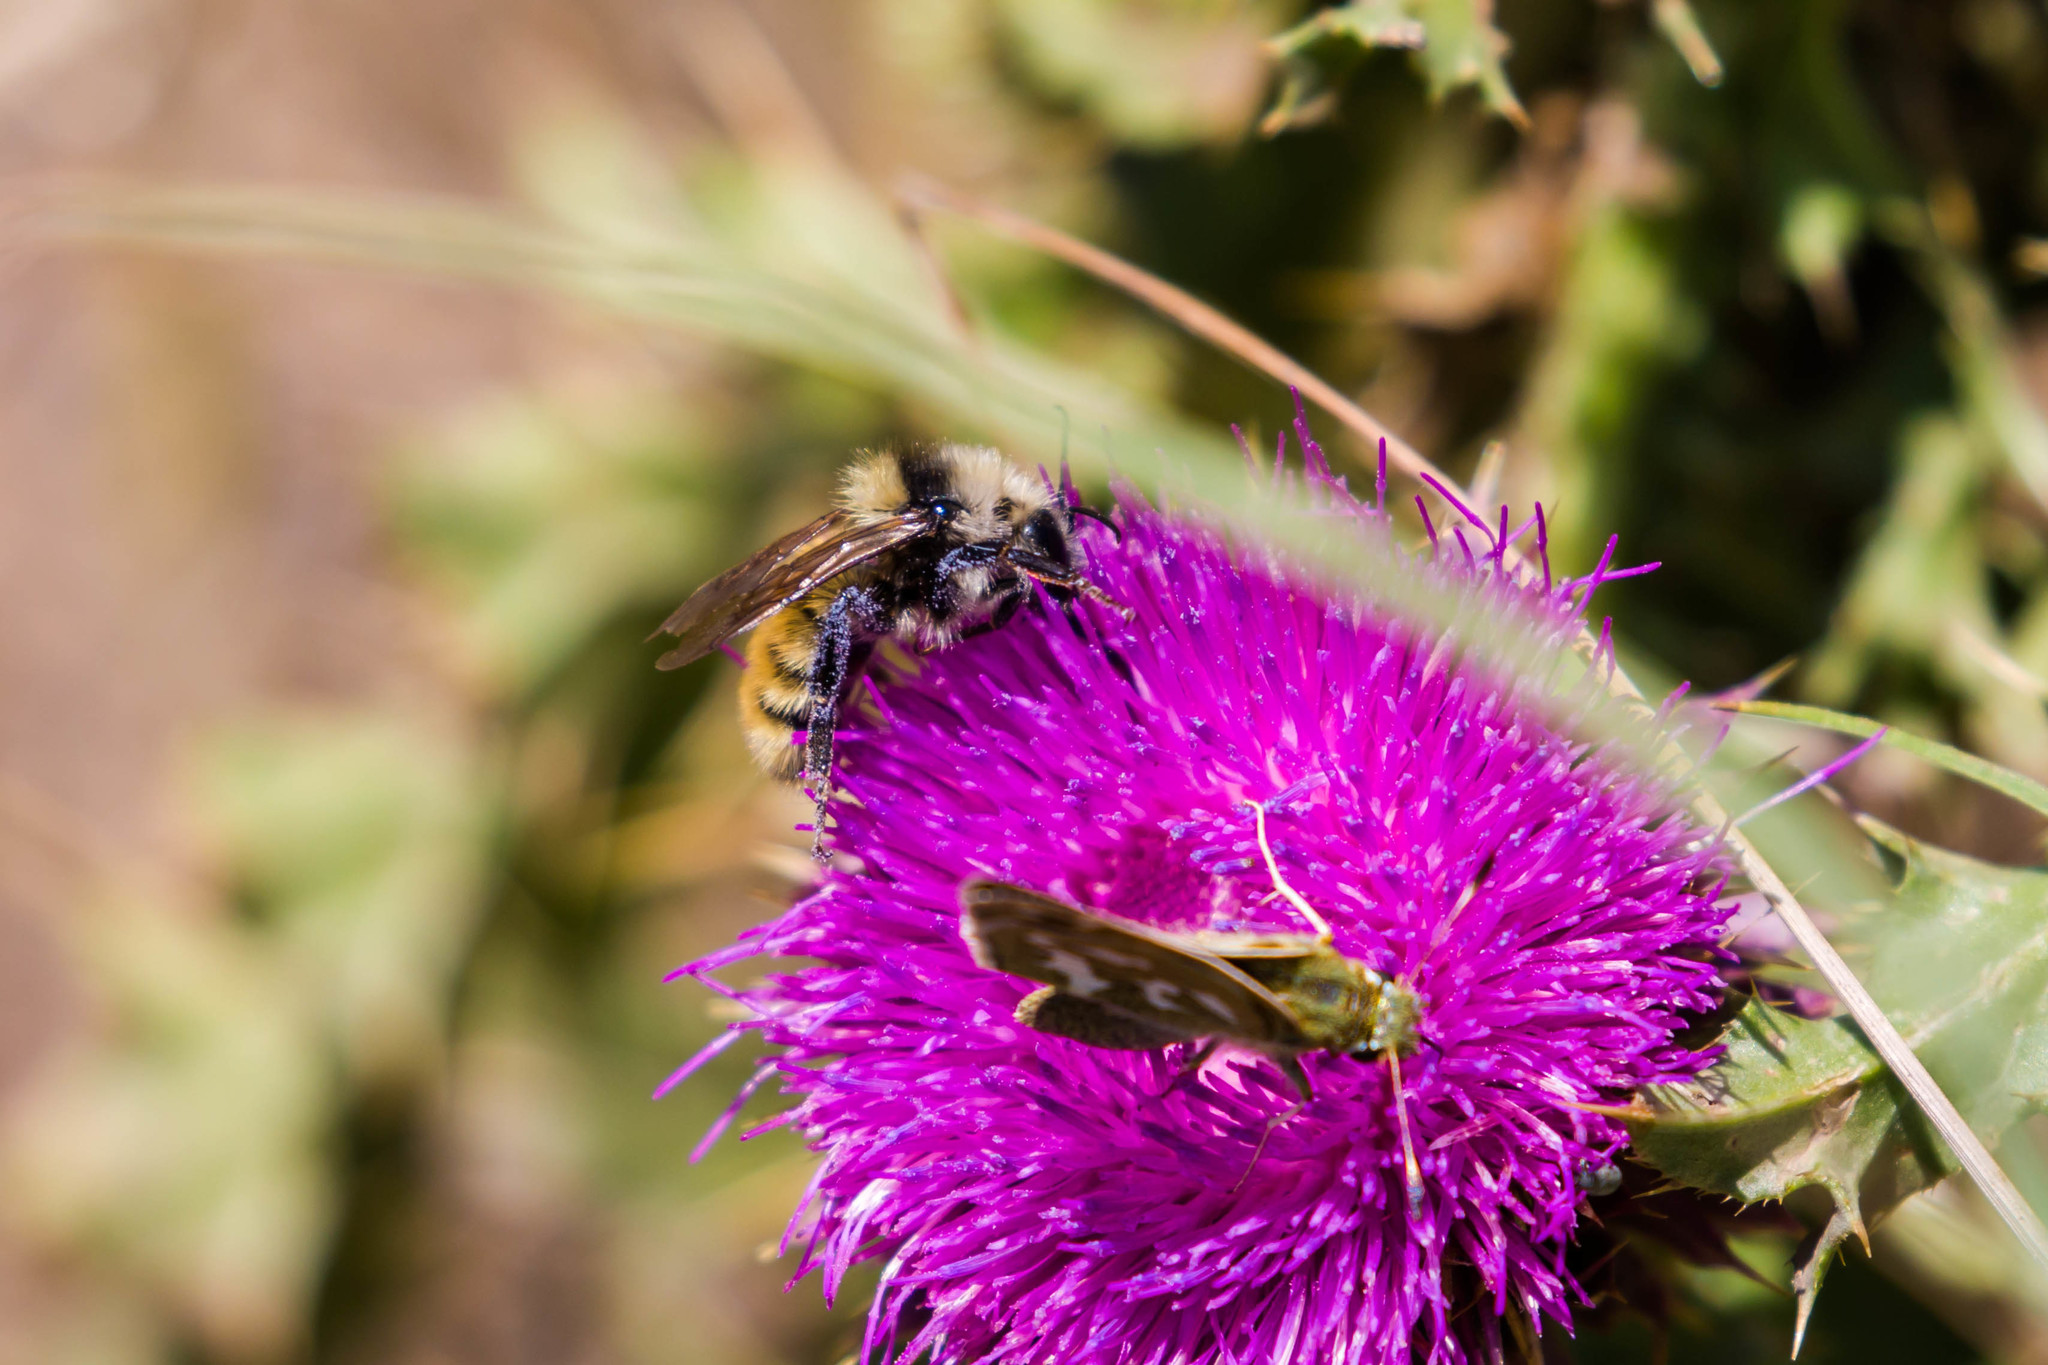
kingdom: Animalia
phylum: Arthropoda
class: Insecta
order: Hymenoptera
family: Apidae
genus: Bombus
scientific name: Bombus appositus
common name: White-shouldered bumble bee
